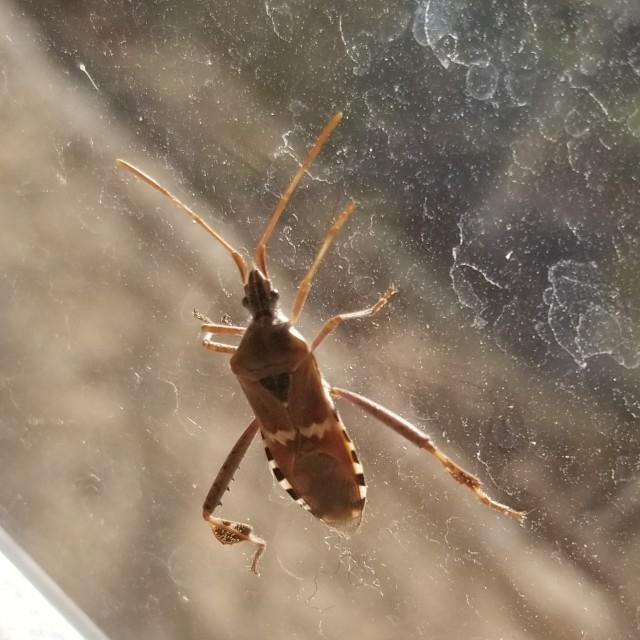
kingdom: Animalia
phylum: Arthropoda
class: Insecta
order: Hemiptera
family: Coreidae
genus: Leptoglossus
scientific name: Leptoglossus clypealis
